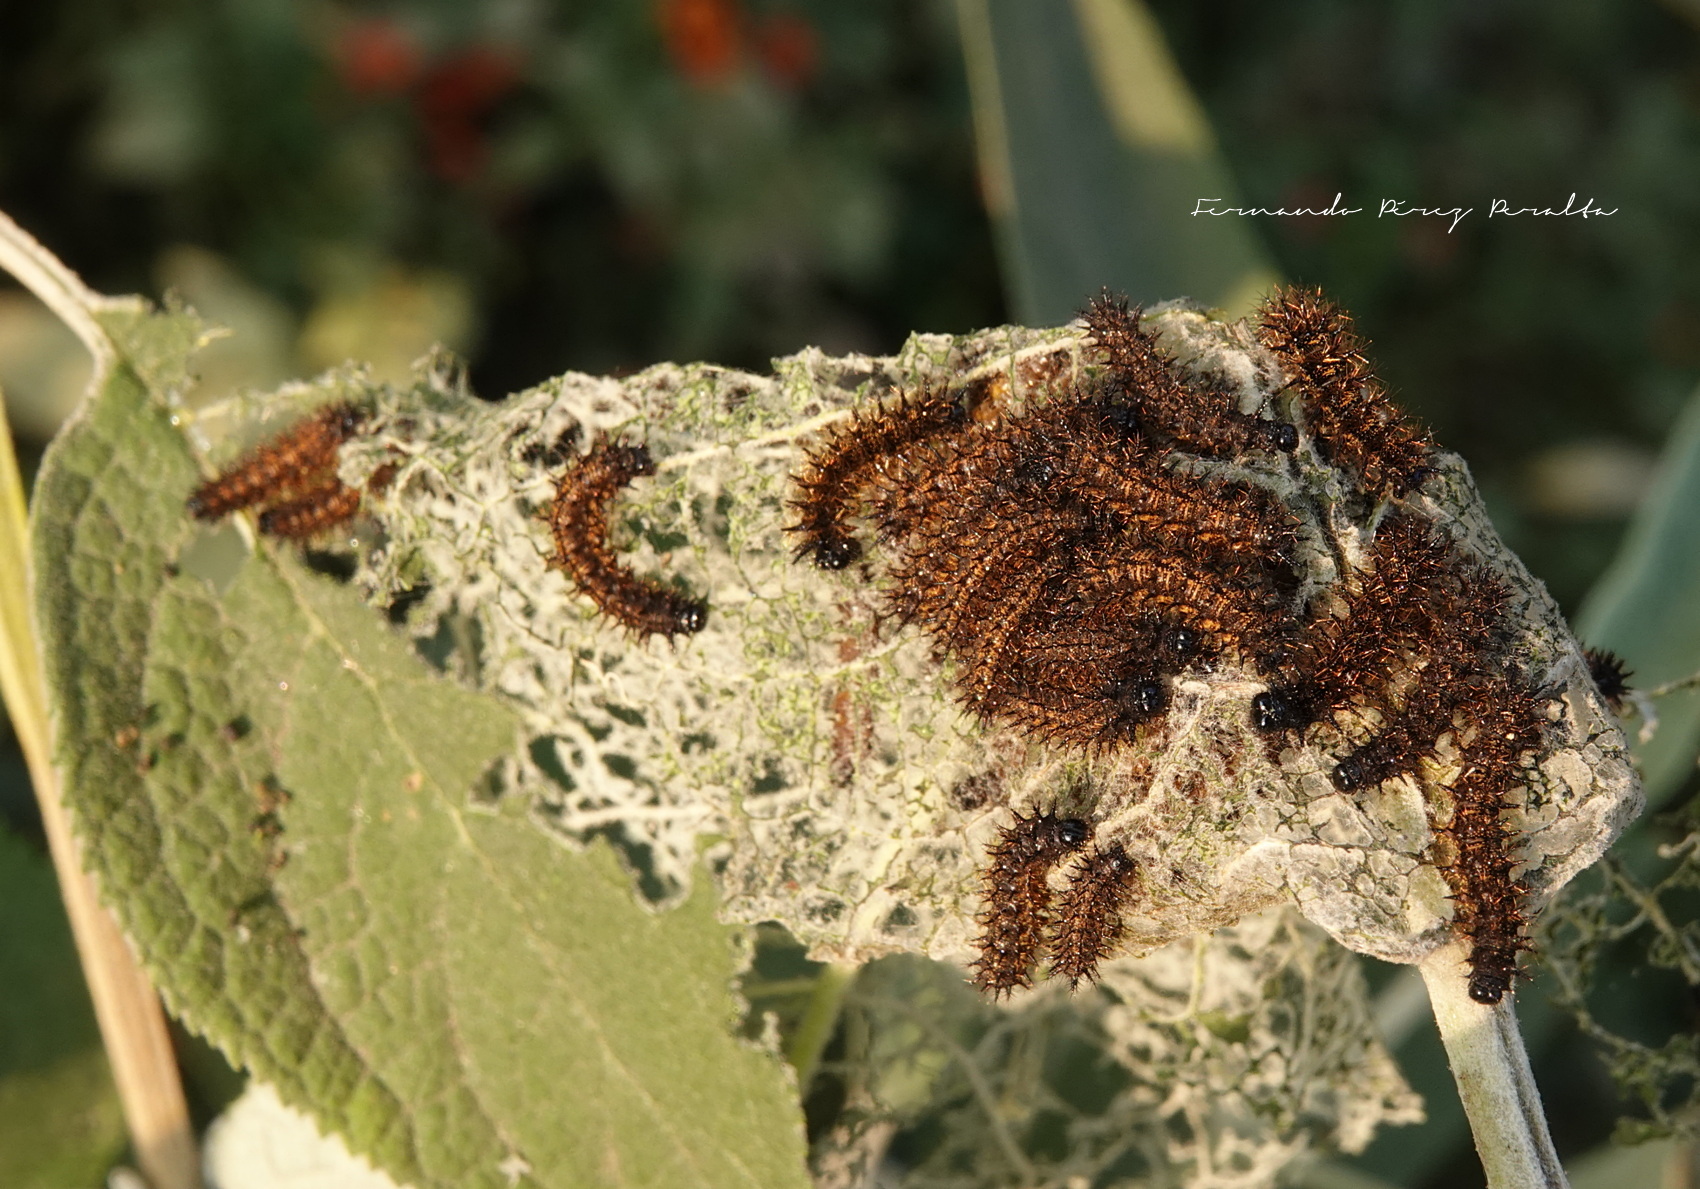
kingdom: Animalia
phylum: Arthropoda
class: Insecta
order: Lepidoptera
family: Nymphalidae
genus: Chlosyne
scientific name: Chlosyne ehrenbergii
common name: White-rayed patch
